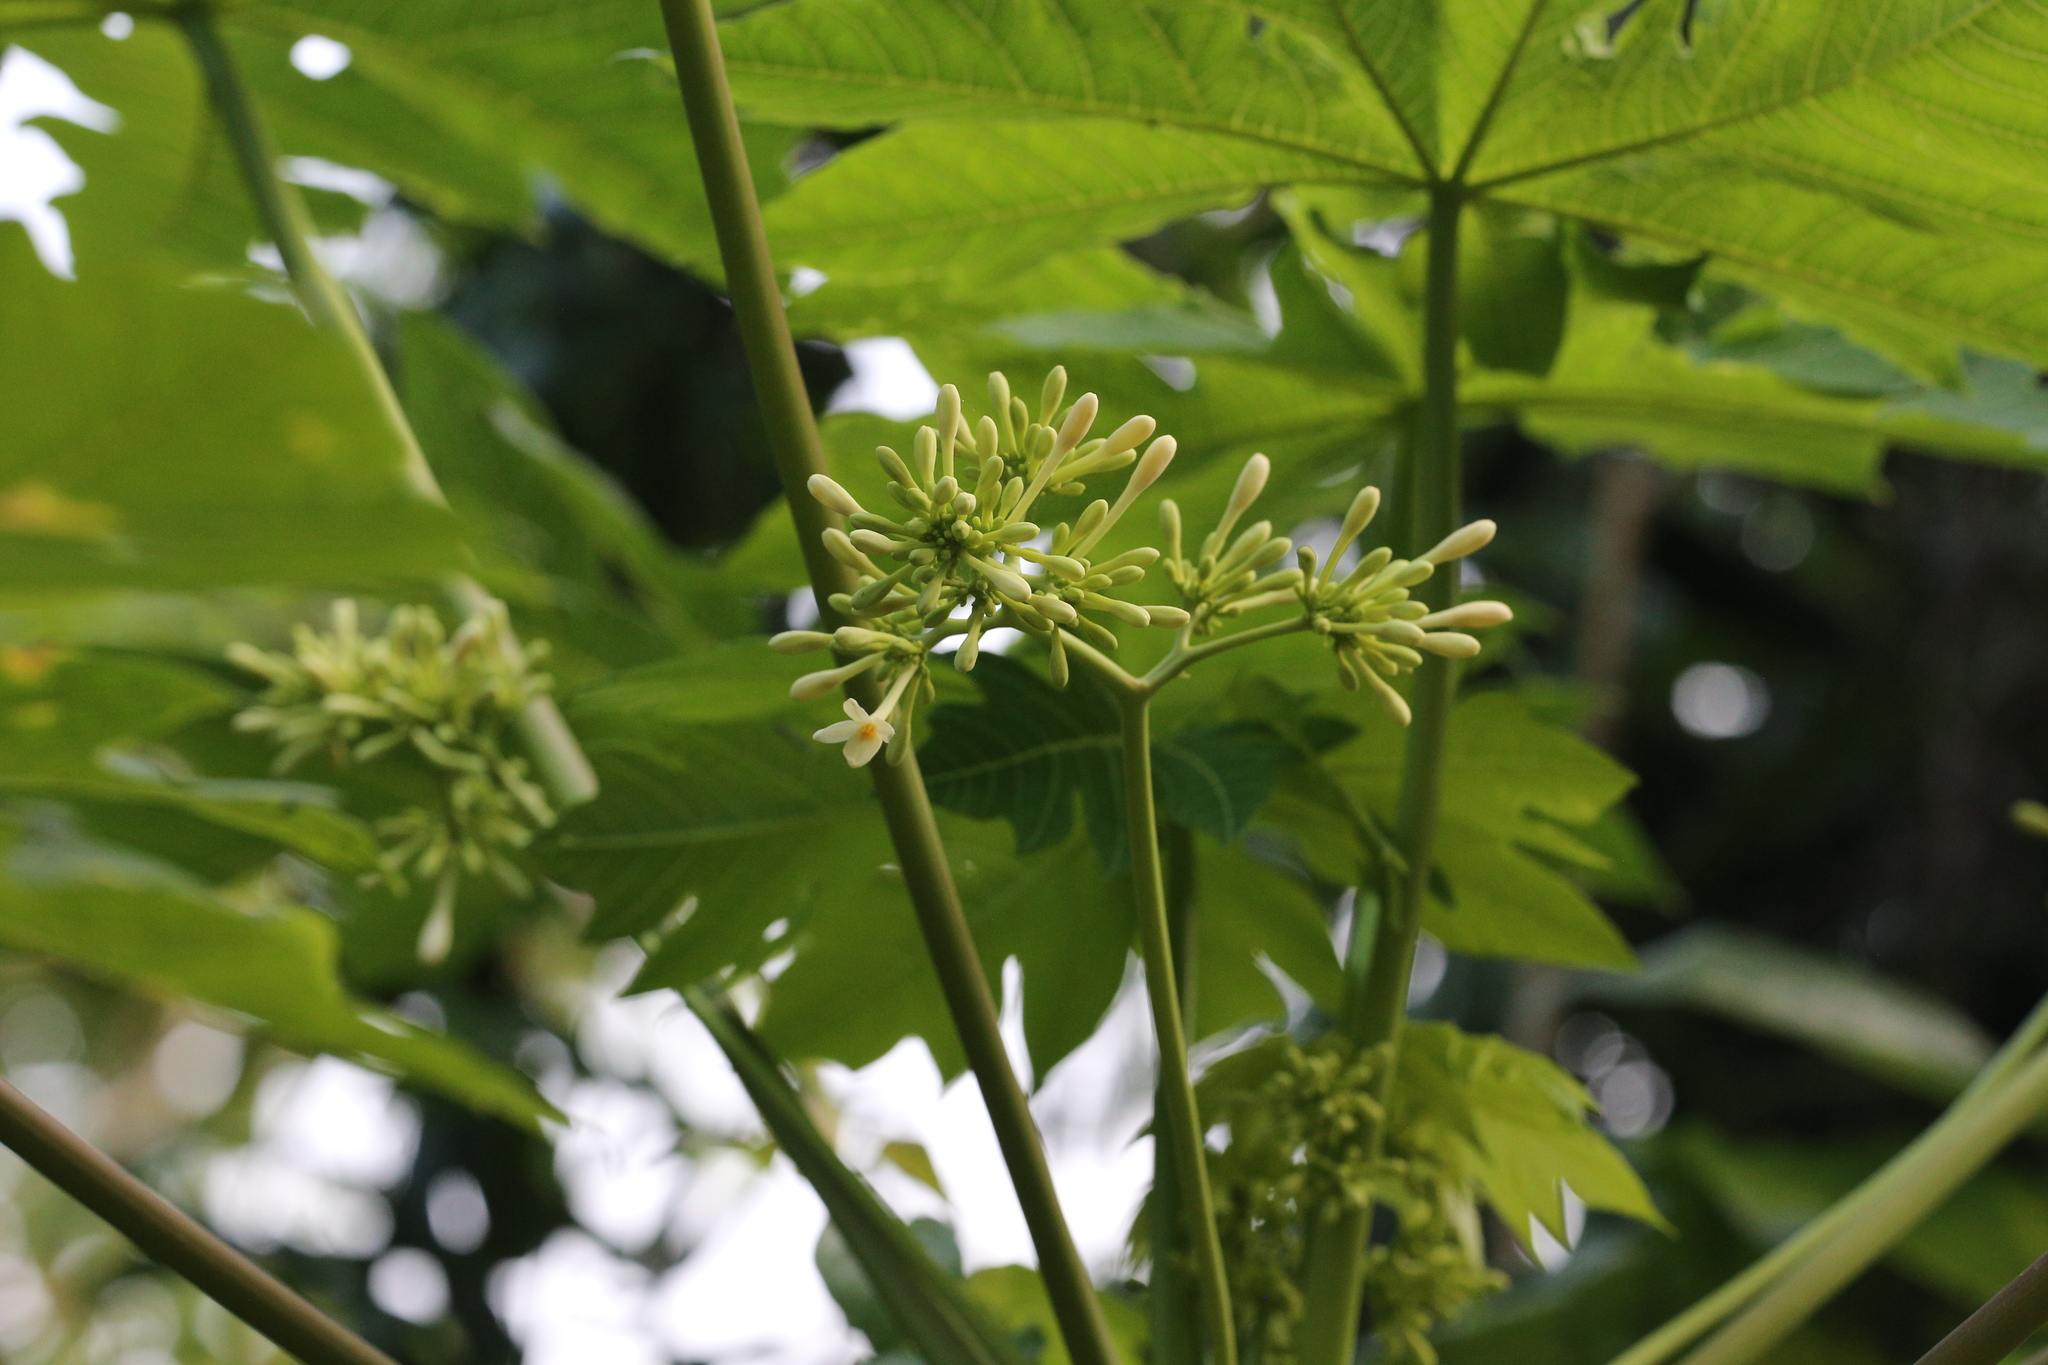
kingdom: Plantae
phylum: Tracheophyta
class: Magnoliopsida
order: Brassicales
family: Caricaceae
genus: Carica
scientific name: Carica papaya
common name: Papaya
